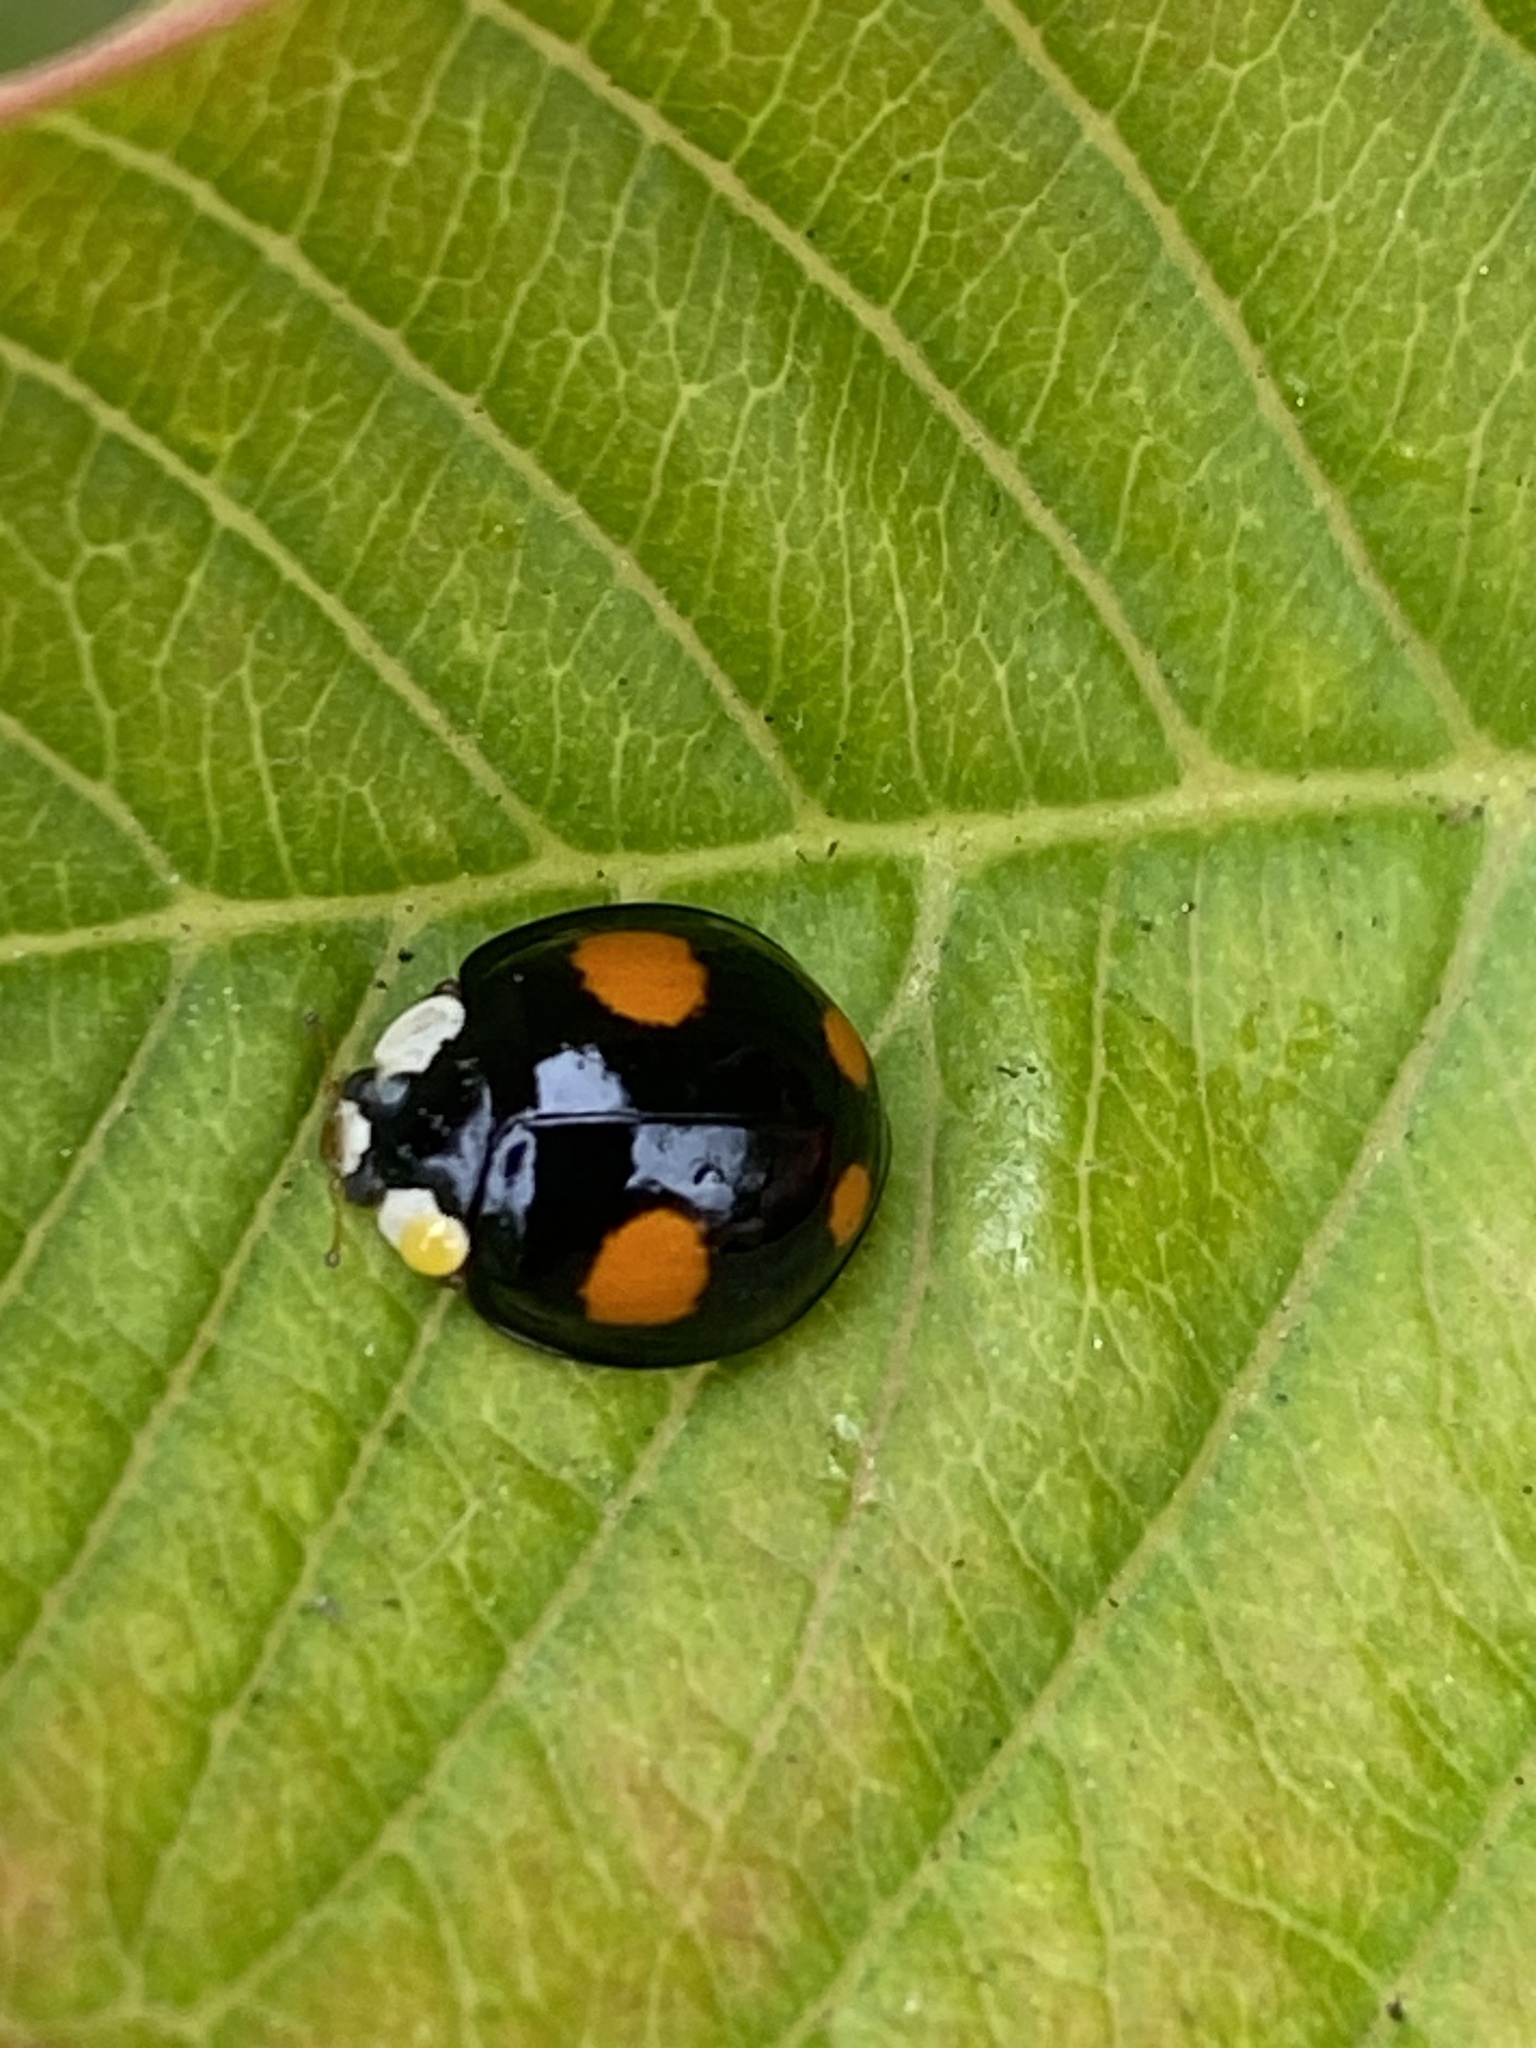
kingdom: Animalia
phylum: Arthropoda
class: Insecta
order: Coleoptera
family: Coccinellidae
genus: Harmonia
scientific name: Harmonia axyridis
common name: Harlequin ladybird
